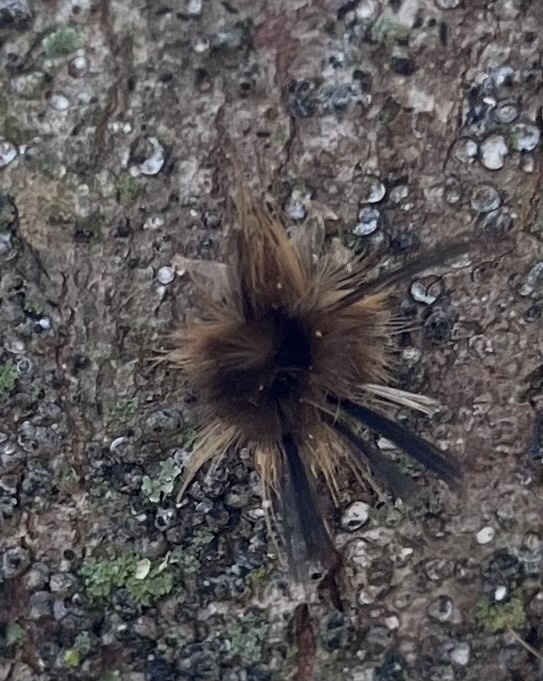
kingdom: Animalia
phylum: Arthropoda
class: Insecta
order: Lepidoptera
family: Erebidae
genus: Halysidota
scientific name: Halysidota tessellaris
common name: Banded tussock moth
